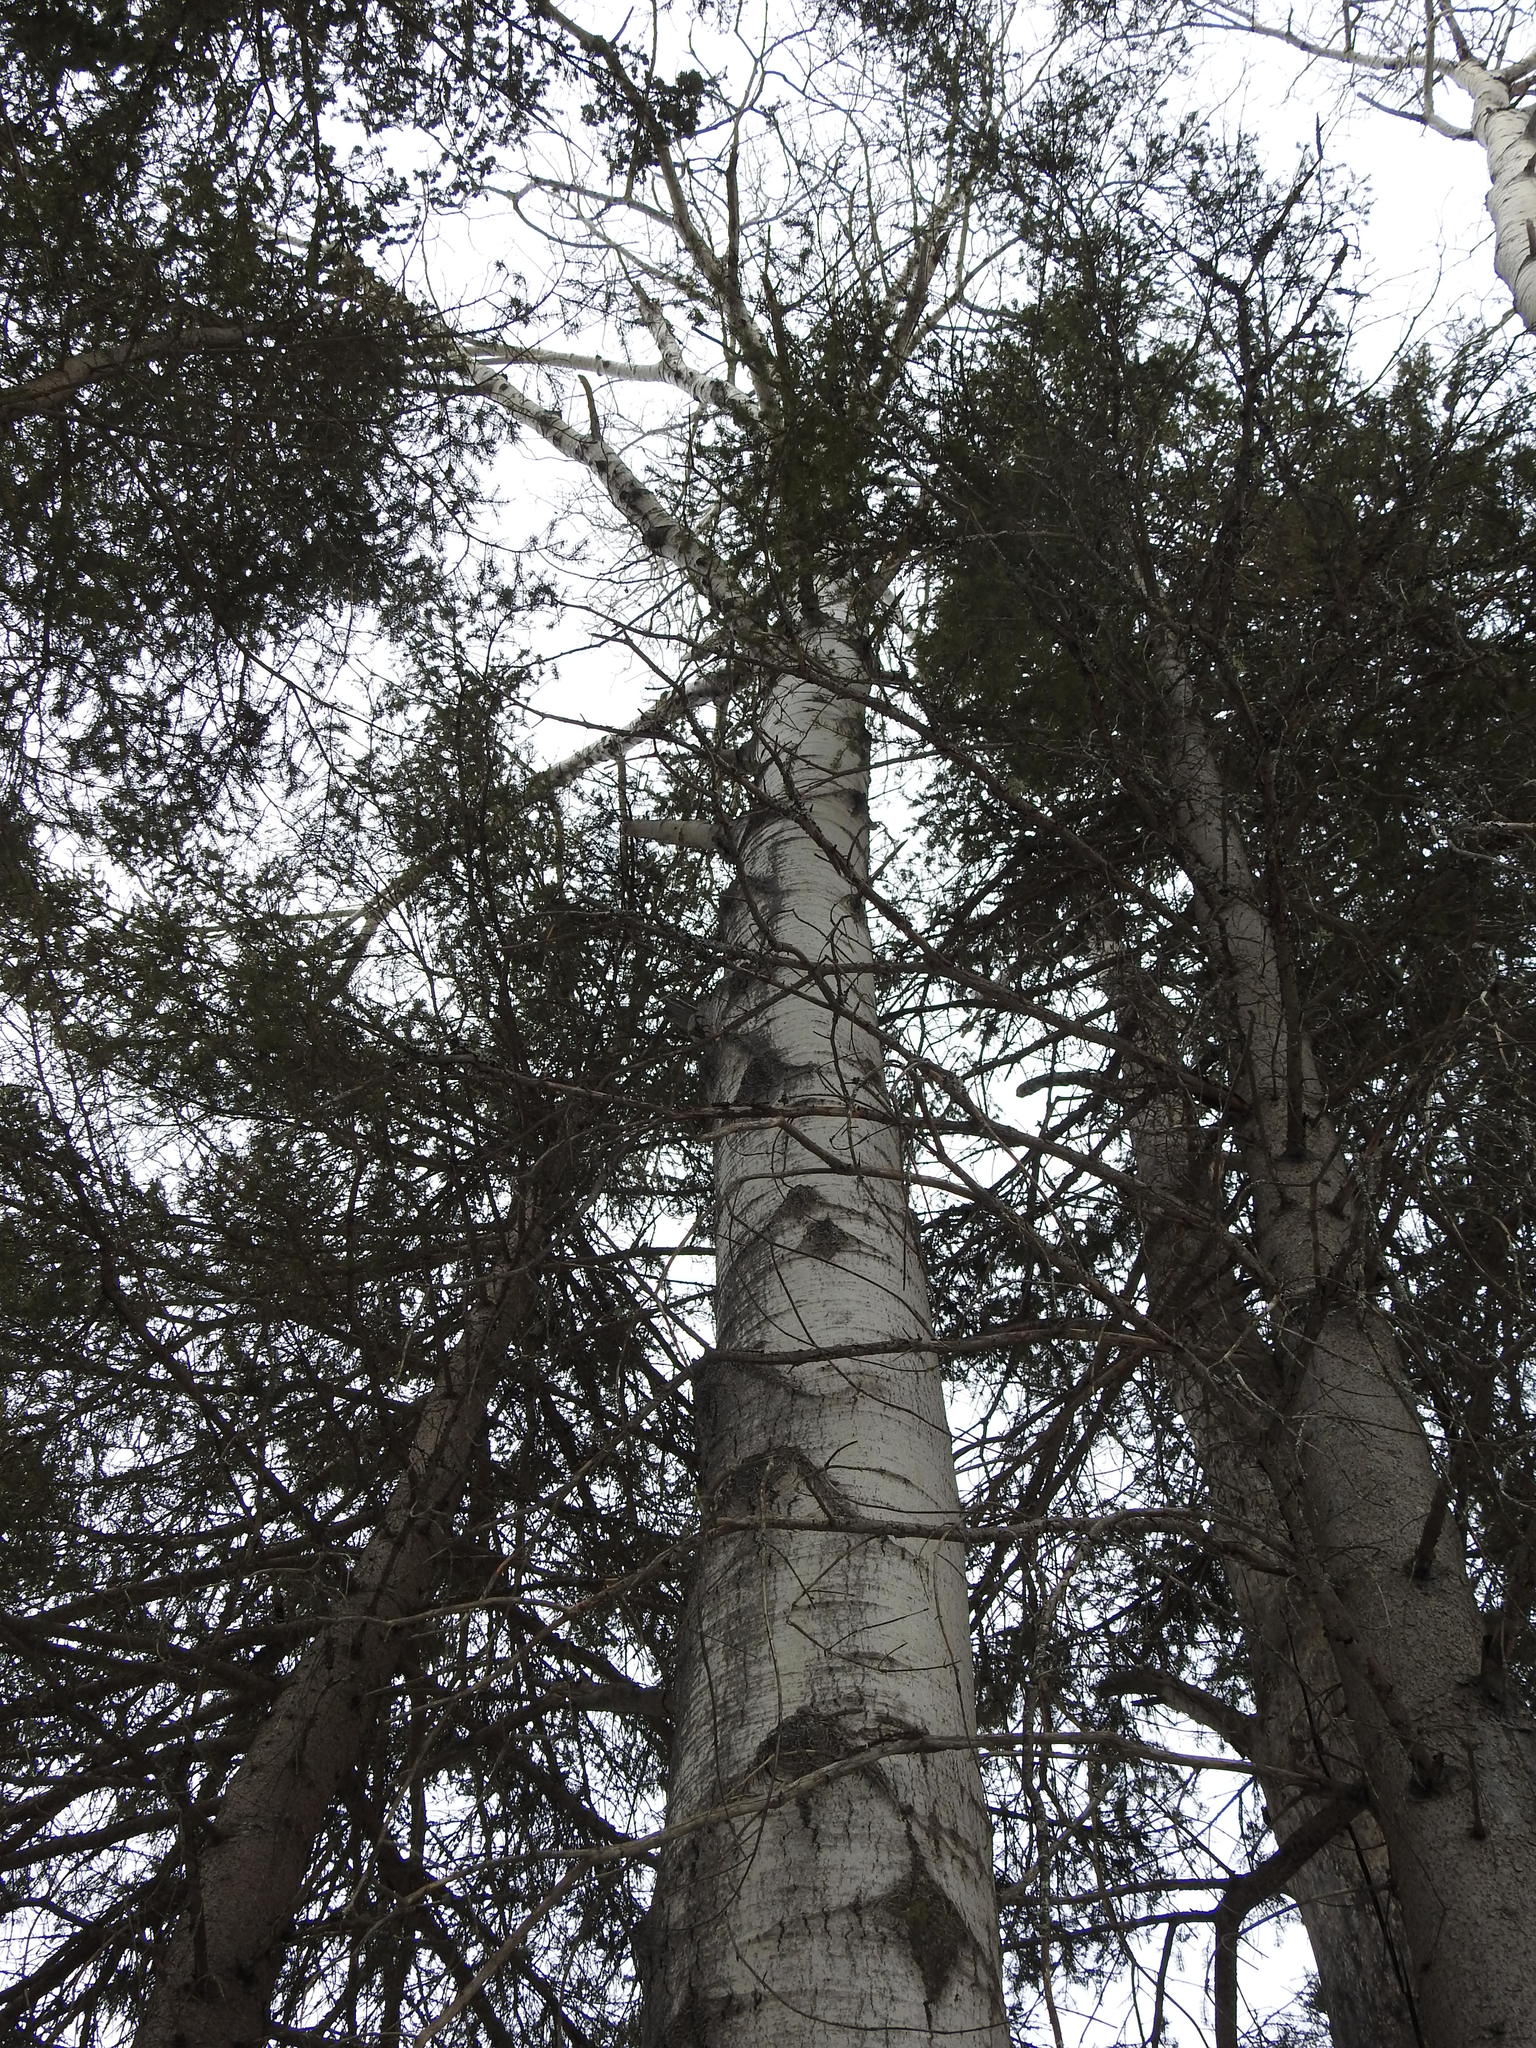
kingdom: Plantae
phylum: Tracheophyta
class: Magnoliopsida
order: Malpighiales
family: Salicaceae
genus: Populus
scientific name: Populus tremuloides
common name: Quaking aspen
